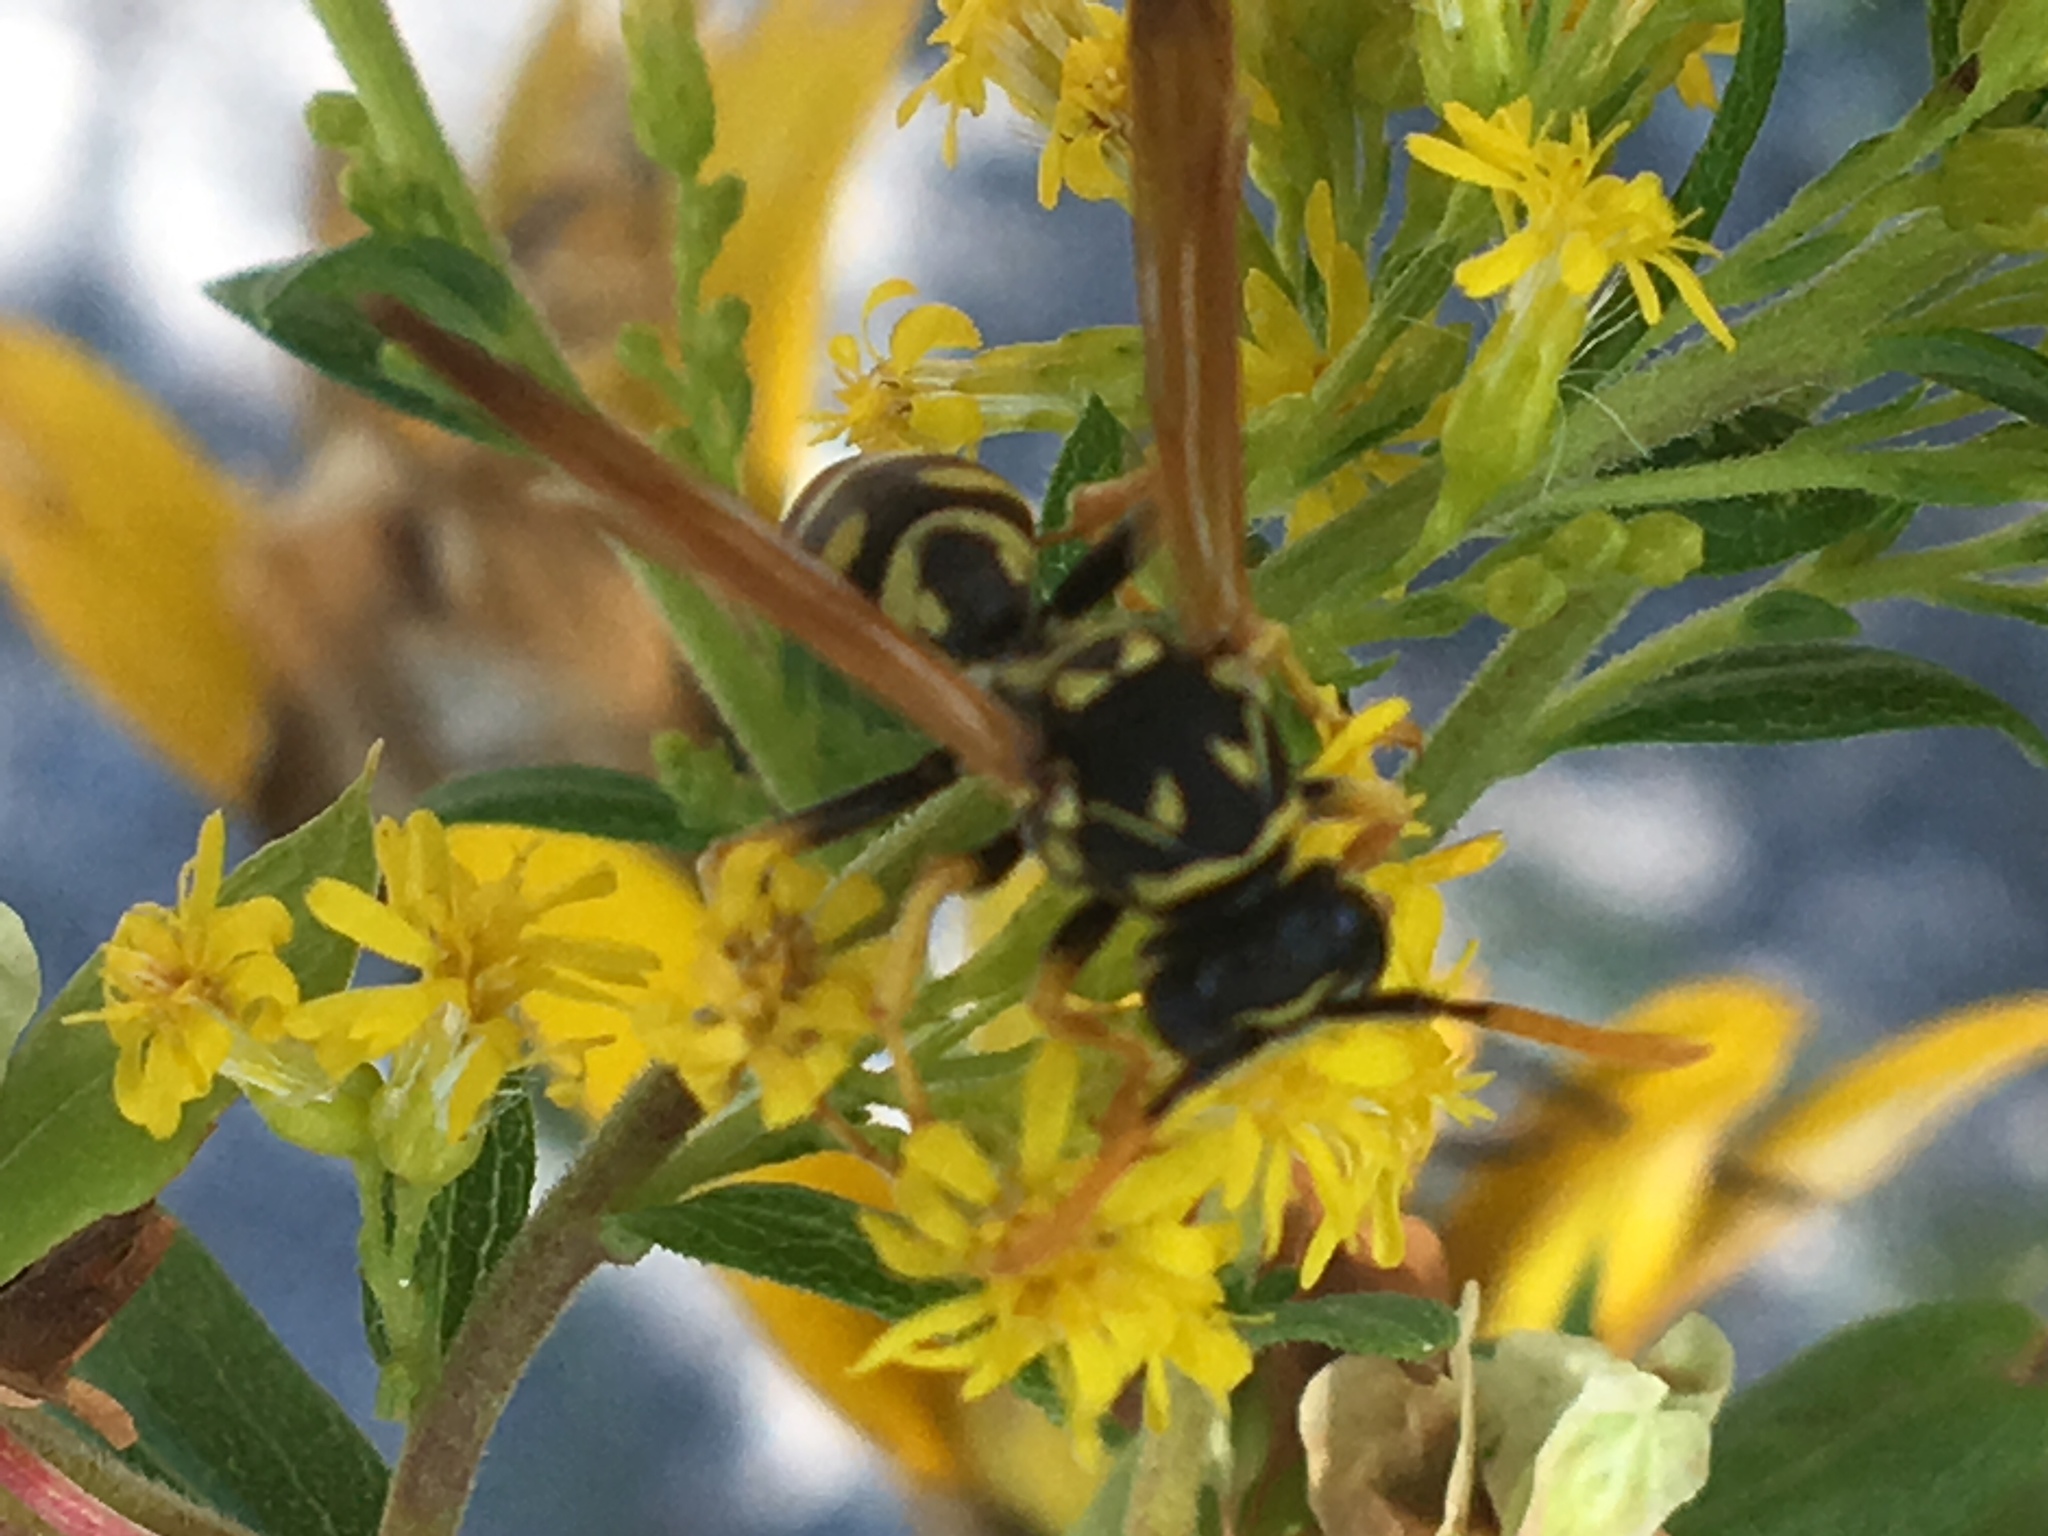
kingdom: Animalia
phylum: Arthropoda
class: Insecta
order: Hymenoptera
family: Eumenidae
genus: Polistes
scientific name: Polistes dominula
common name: Paper wasp
